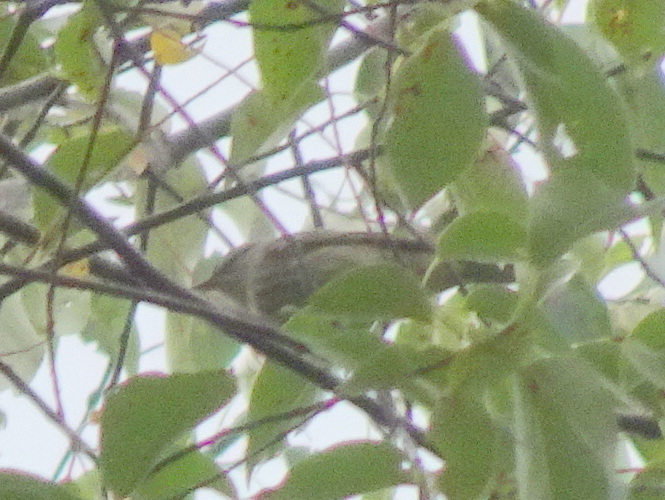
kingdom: Animalia
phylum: Chordata
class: Aves
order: Passeriformes
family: Parulidae
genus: Setophaga
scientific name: Setophaga tigrina
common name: Cape may warbler
